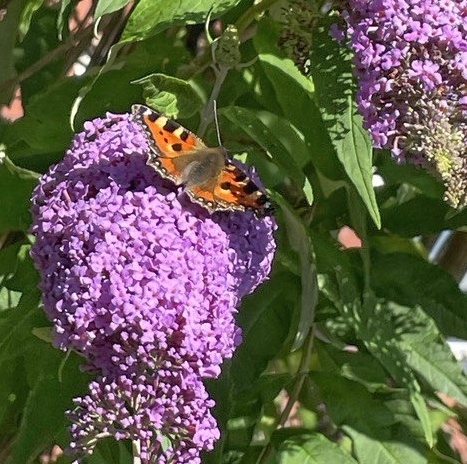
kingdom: Animalia
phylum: Arthropoda
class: Insecta
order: Lepidoptera
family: Nymphalidae
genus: Aglais
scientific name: Aglais urticae
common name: Small tortoiseshell
